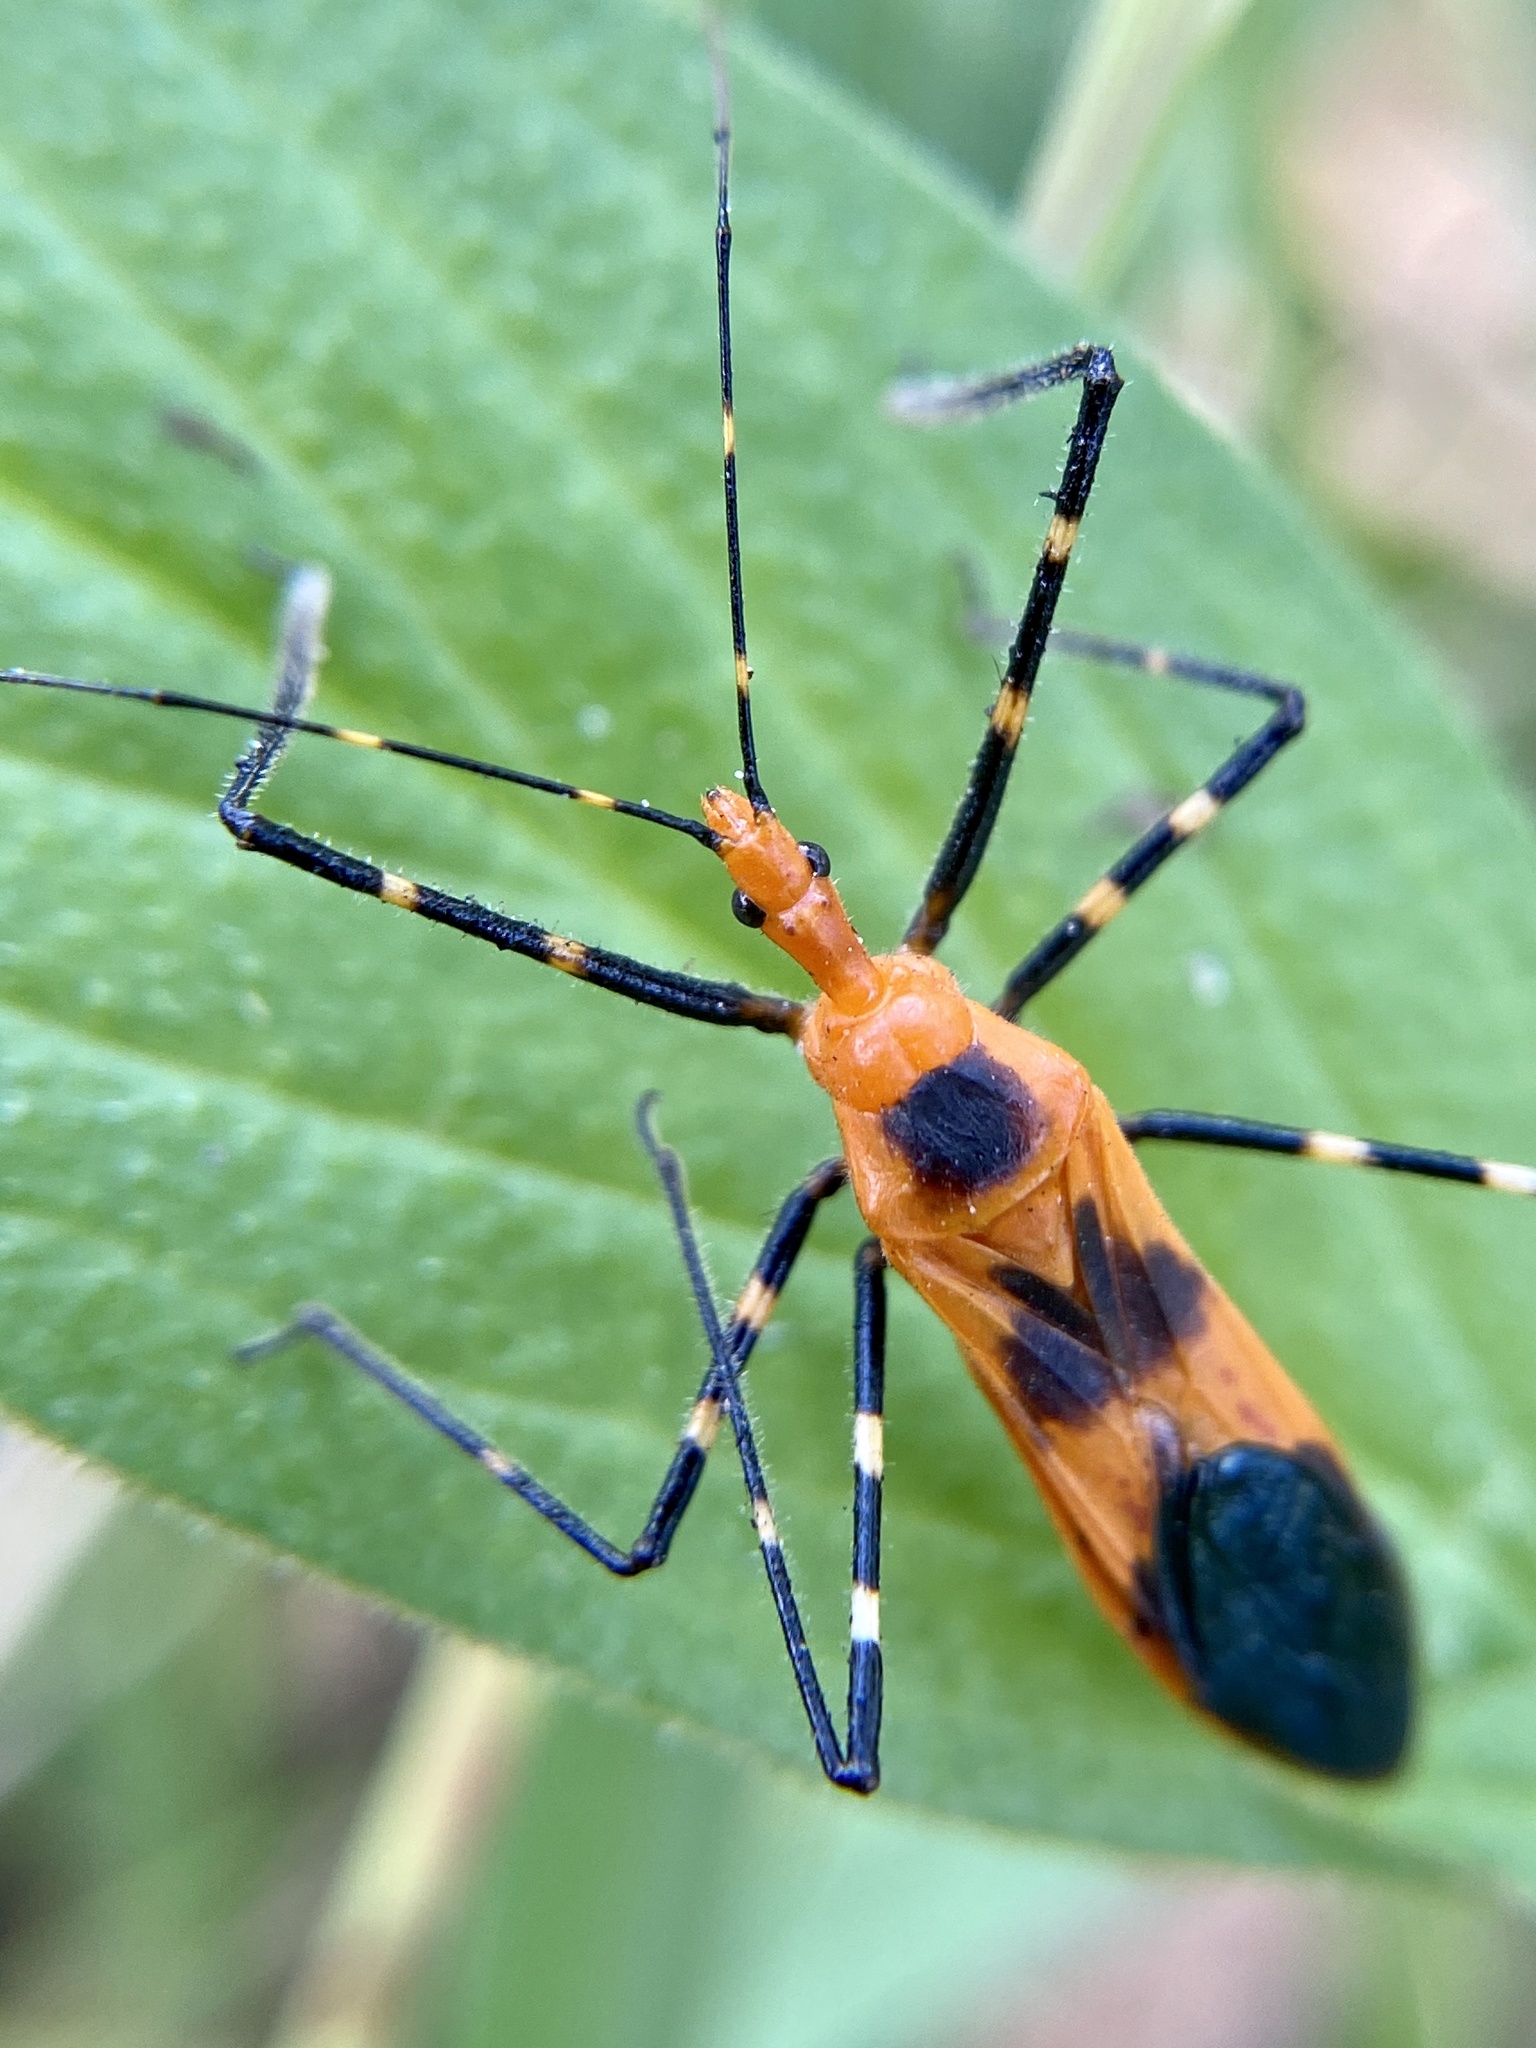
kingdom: Animalia
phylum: Arthropoda
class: Insecta
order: Hemiptera
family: Reduviidae
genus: Zelus
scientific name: Zelus longipes
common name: Milkweed assassin bug
